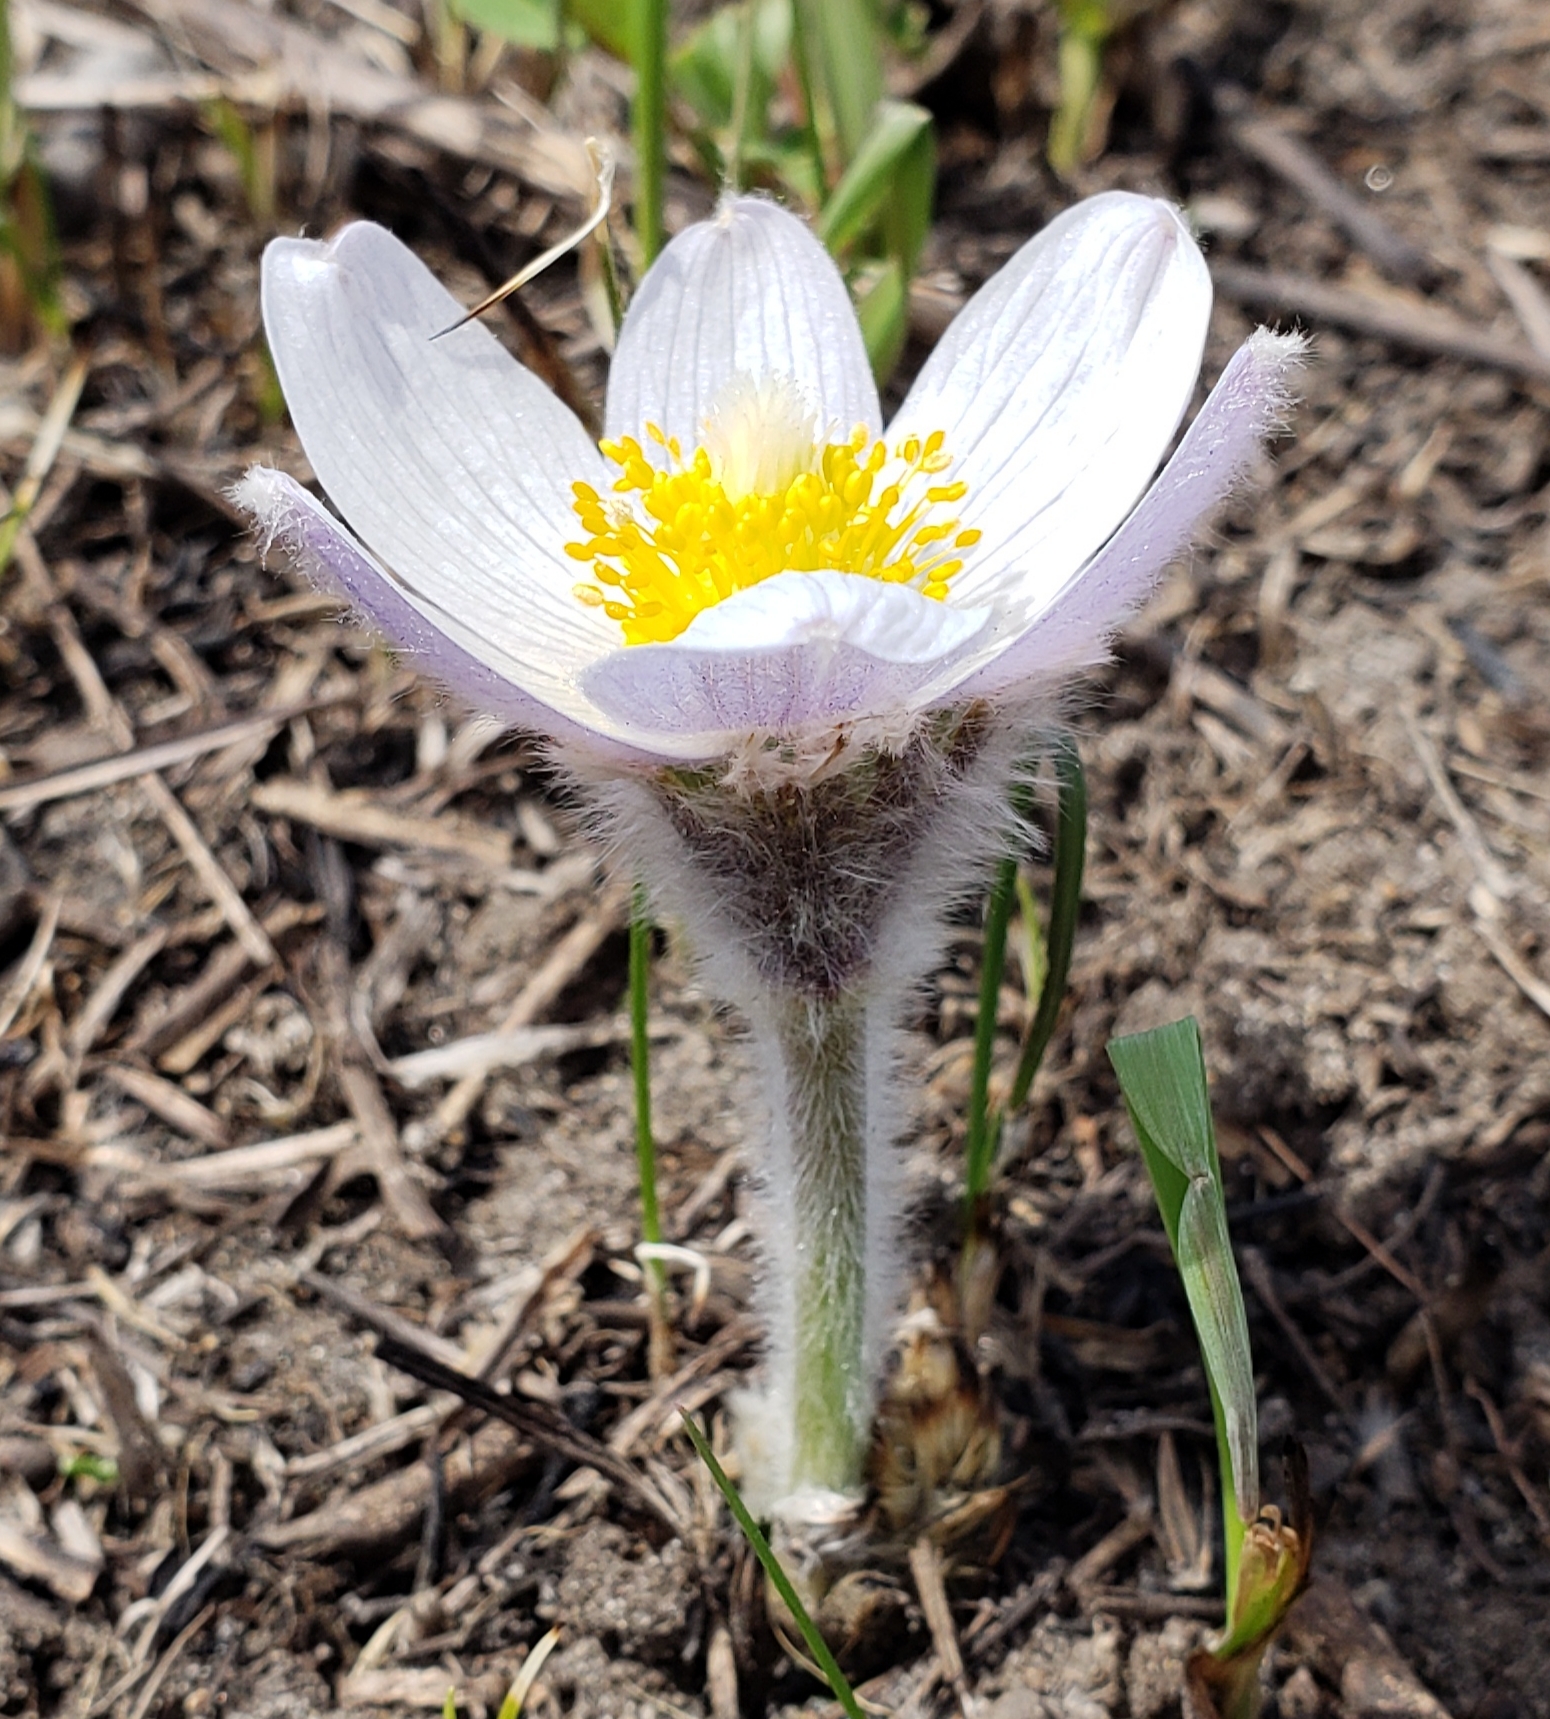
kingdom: Plantae
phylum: Tracheophyta
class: Magnoliopsida
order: Ranunculales
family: Ranunculaceae
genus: Pulsatilla
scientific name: Pulsatilla nuttalliana
